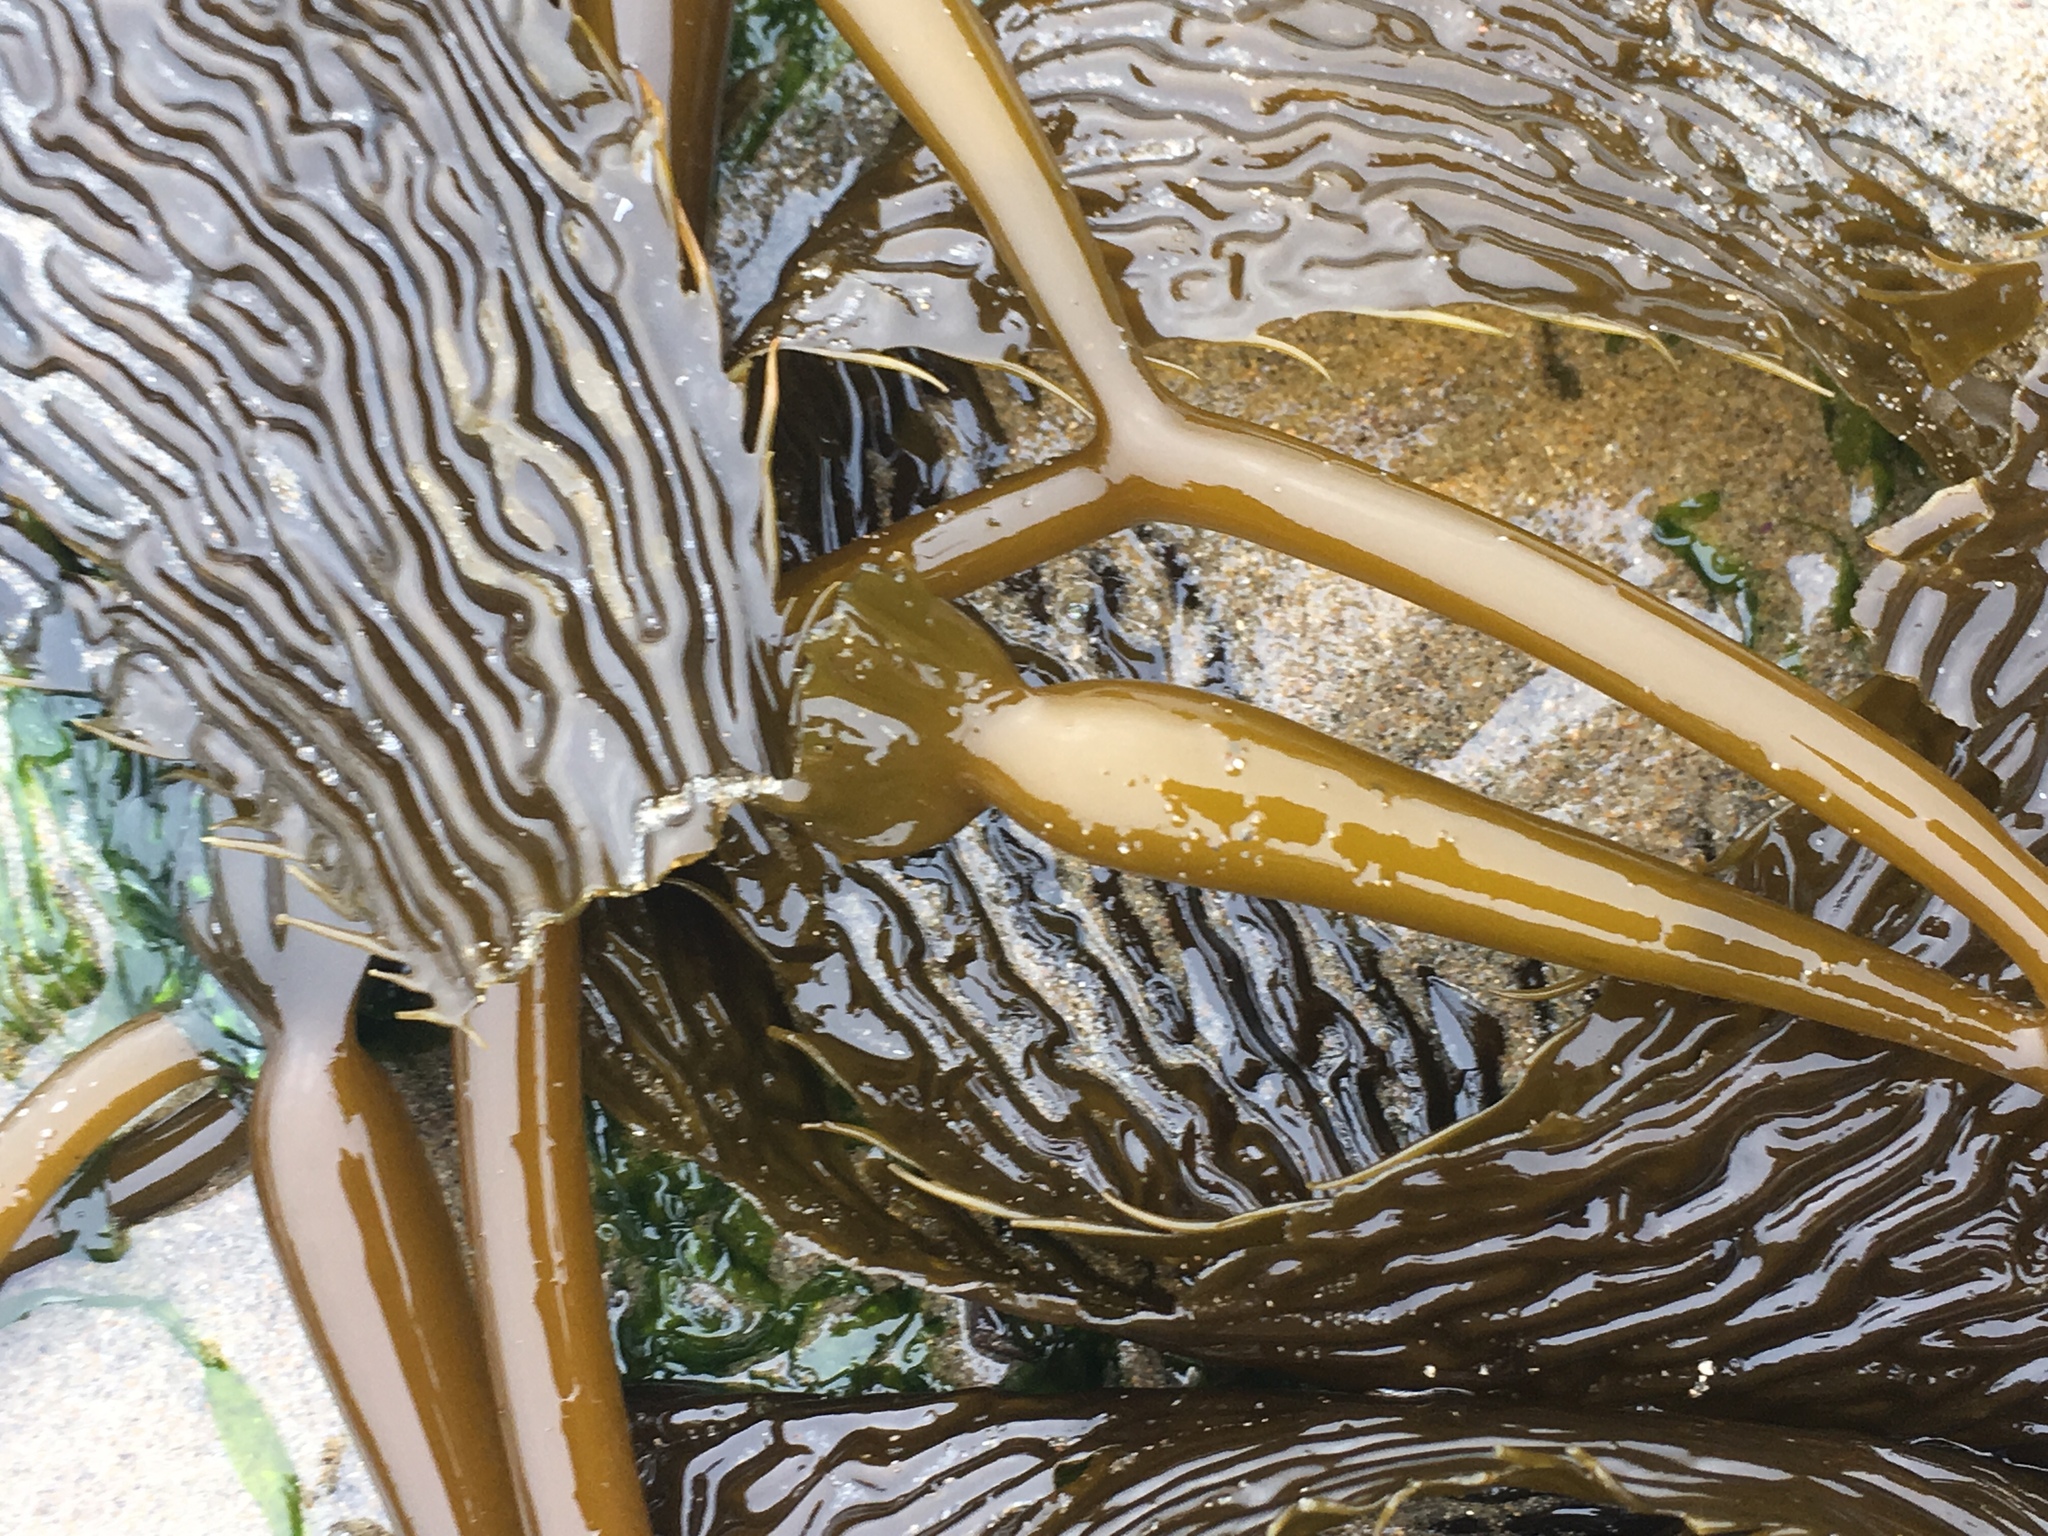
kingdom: Chromista
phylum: Ochrophyta
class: Phaeophyceae
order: Laminariales
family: Laminariaceae
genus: Macrocystis
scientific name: Macrocystis pyrifera
